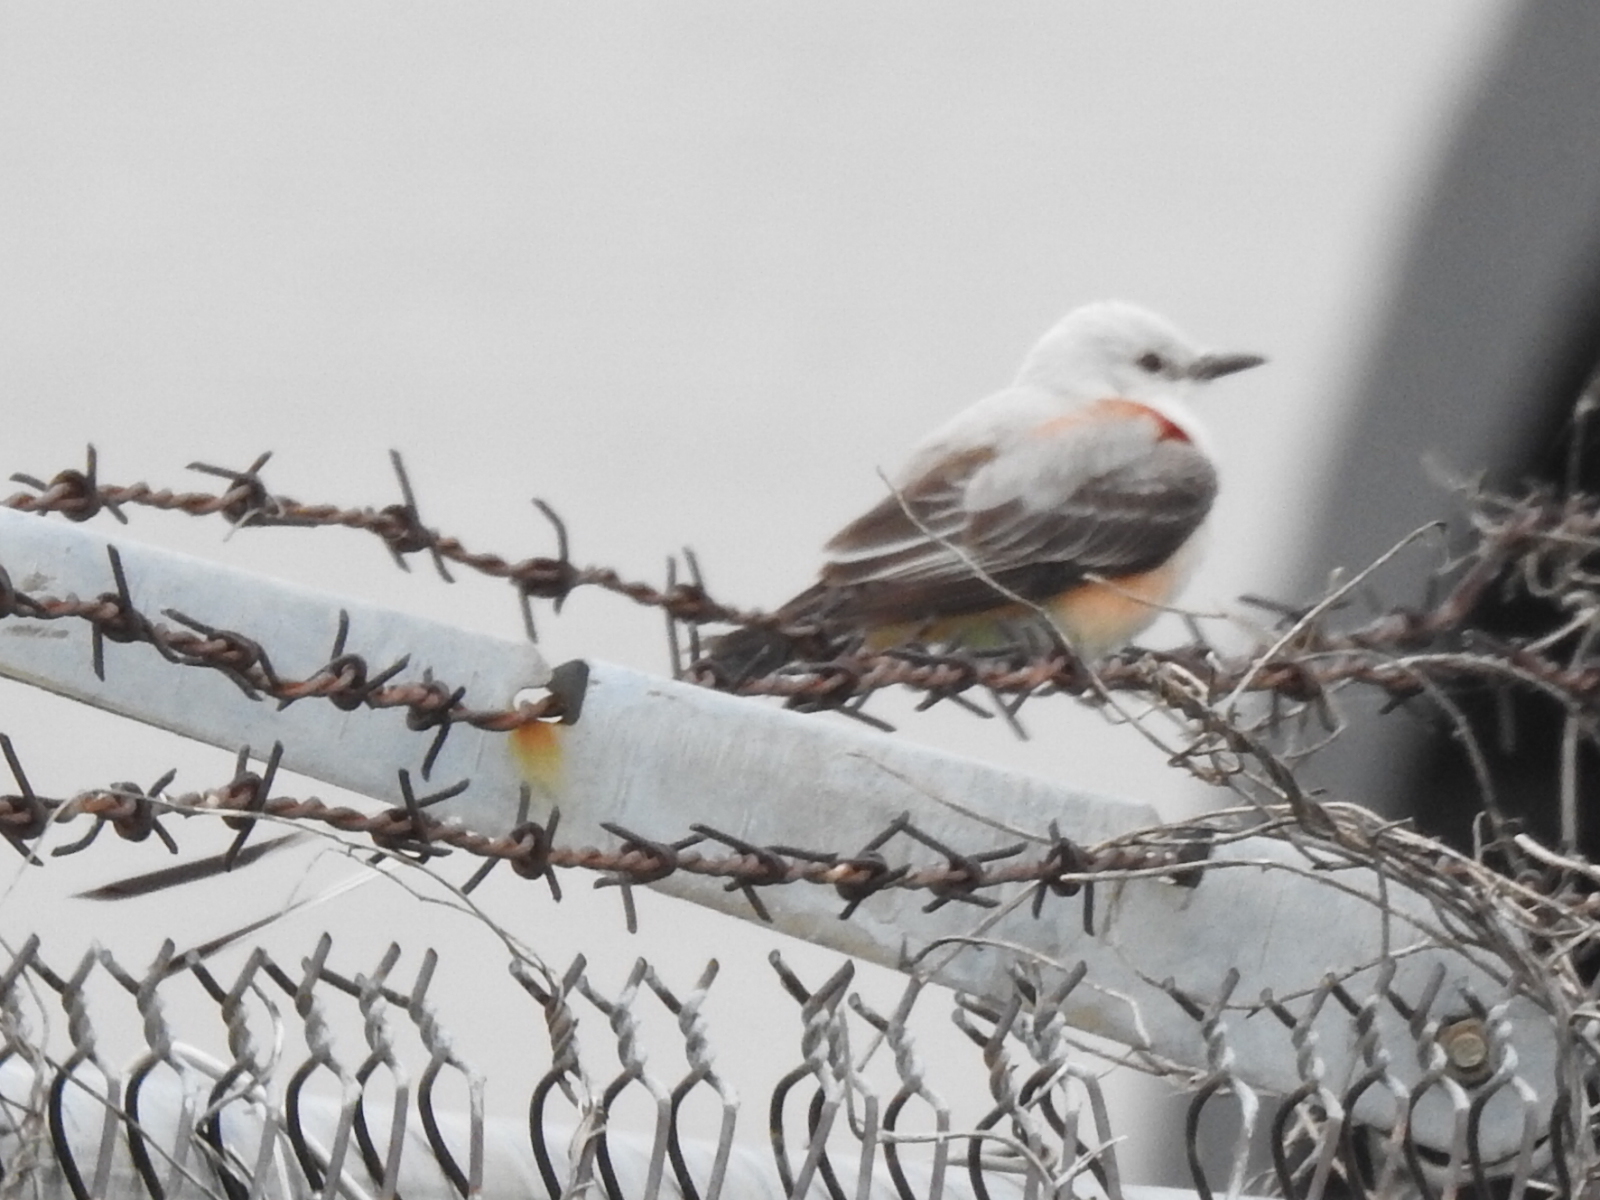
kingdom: Animalia
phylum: Chordata
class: Aves
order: Passeriformes
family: Tyrannidae
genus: Tyrannus
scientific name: Tyrannus forficatus
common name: Scissor-tailed flycatcher
